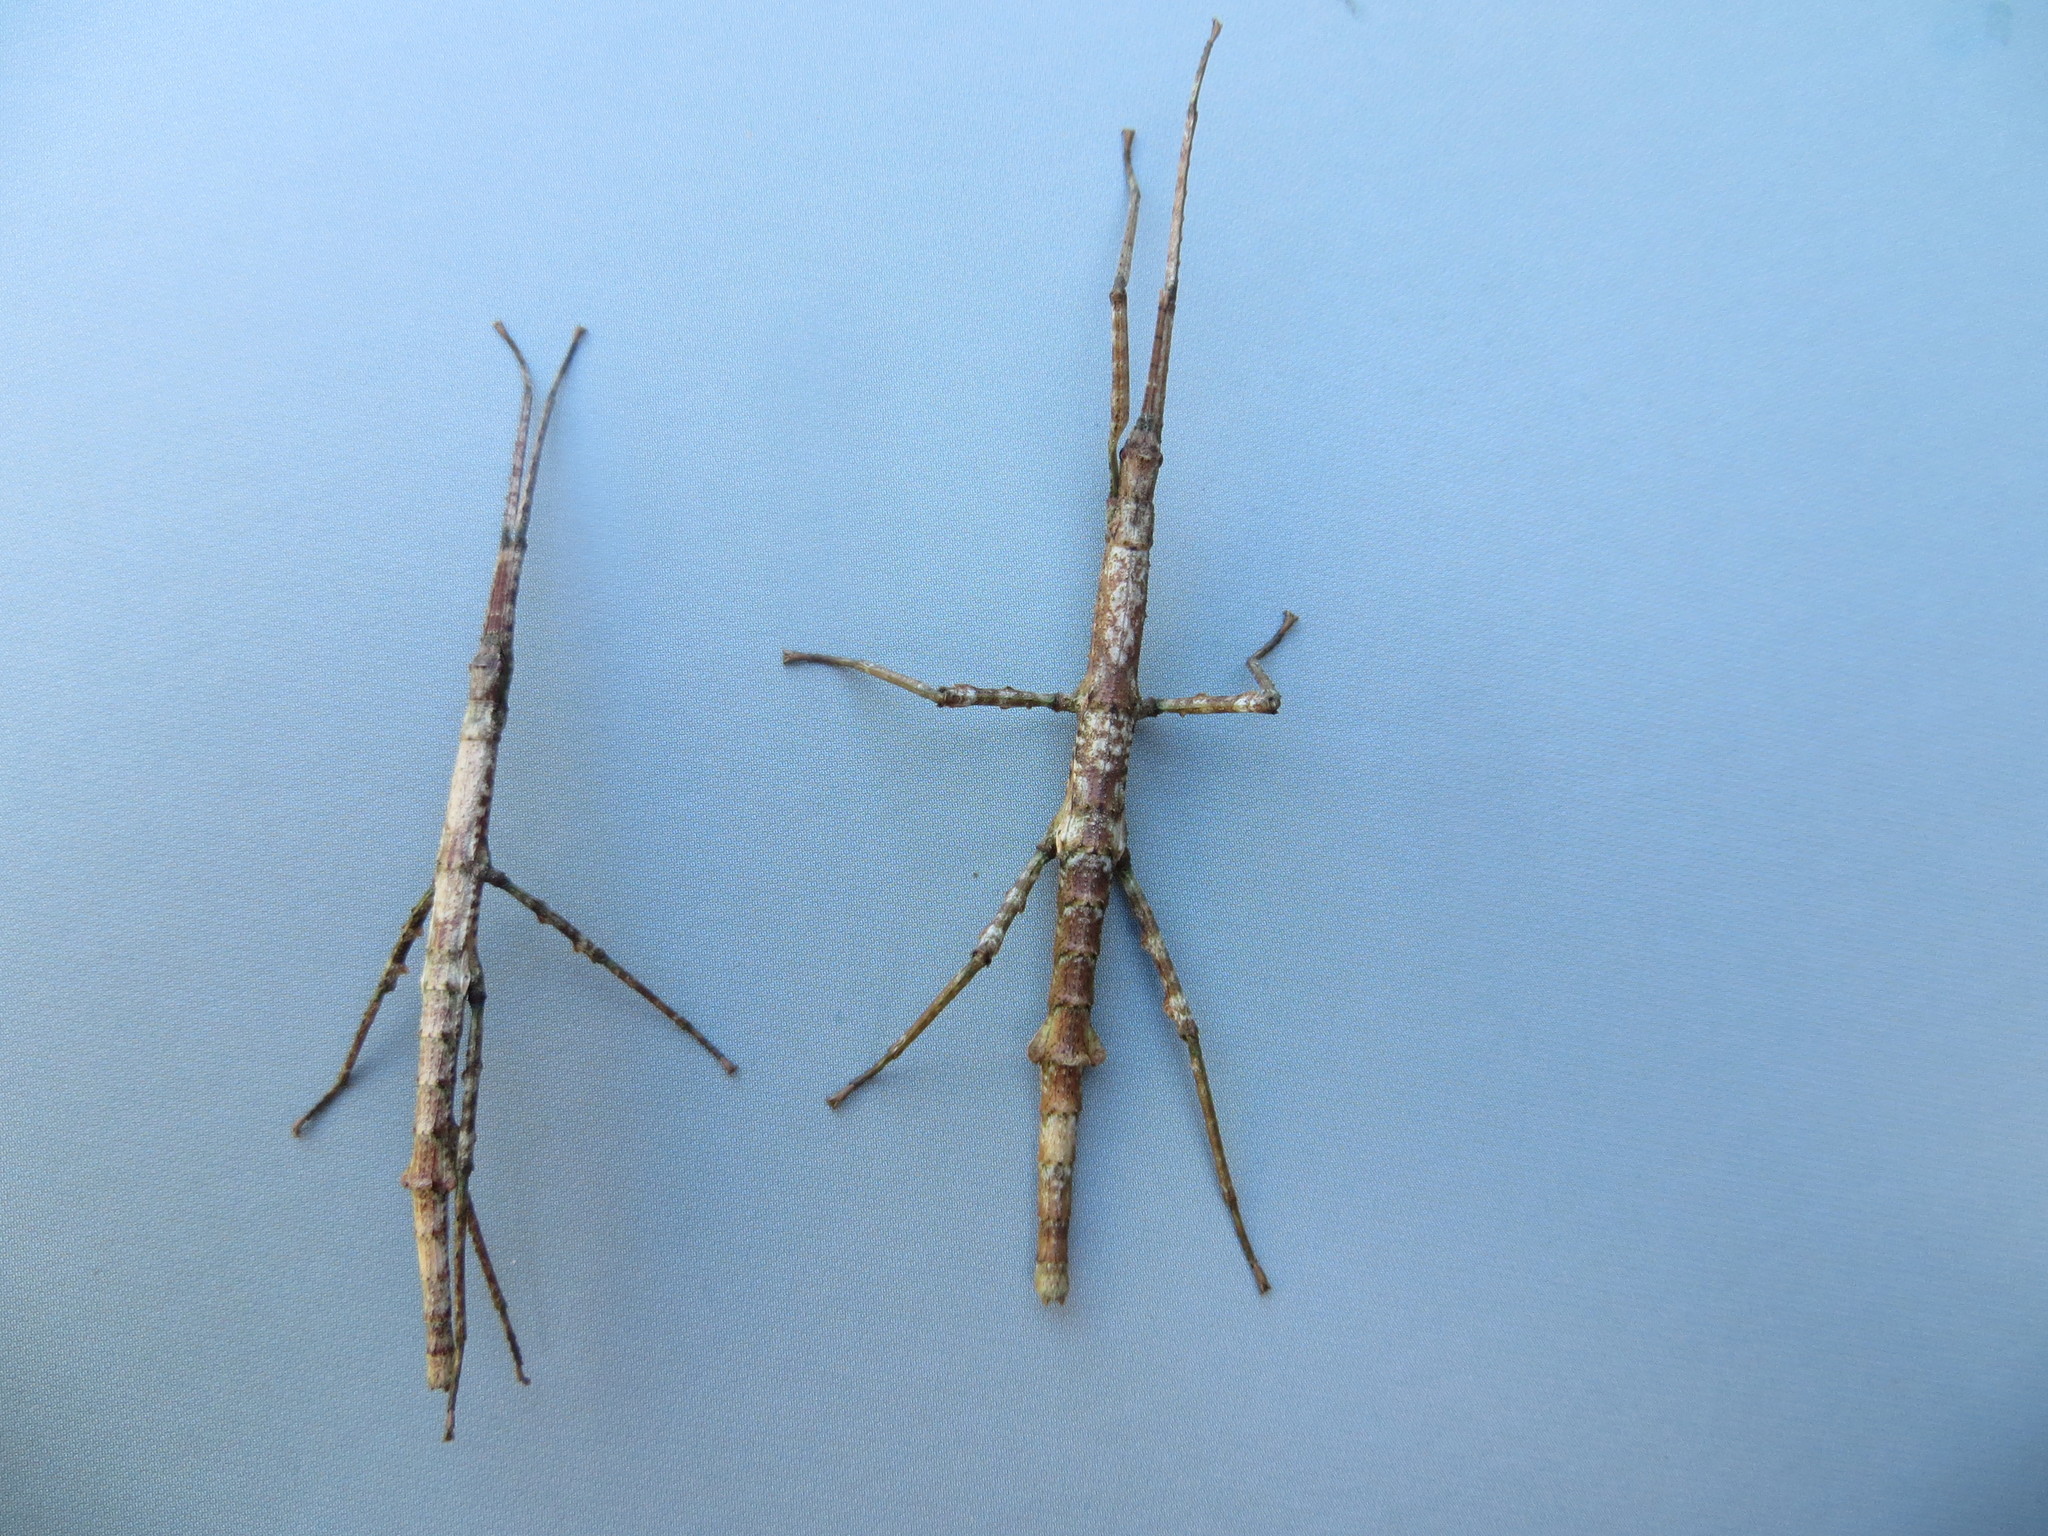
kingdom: Animalia
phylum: Arthropoda
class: Insecta
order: Phasmida
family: Phasmatidae
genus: Niveaphasma
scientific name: Niveaphasma annulatum
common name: Hutton's stick insect
